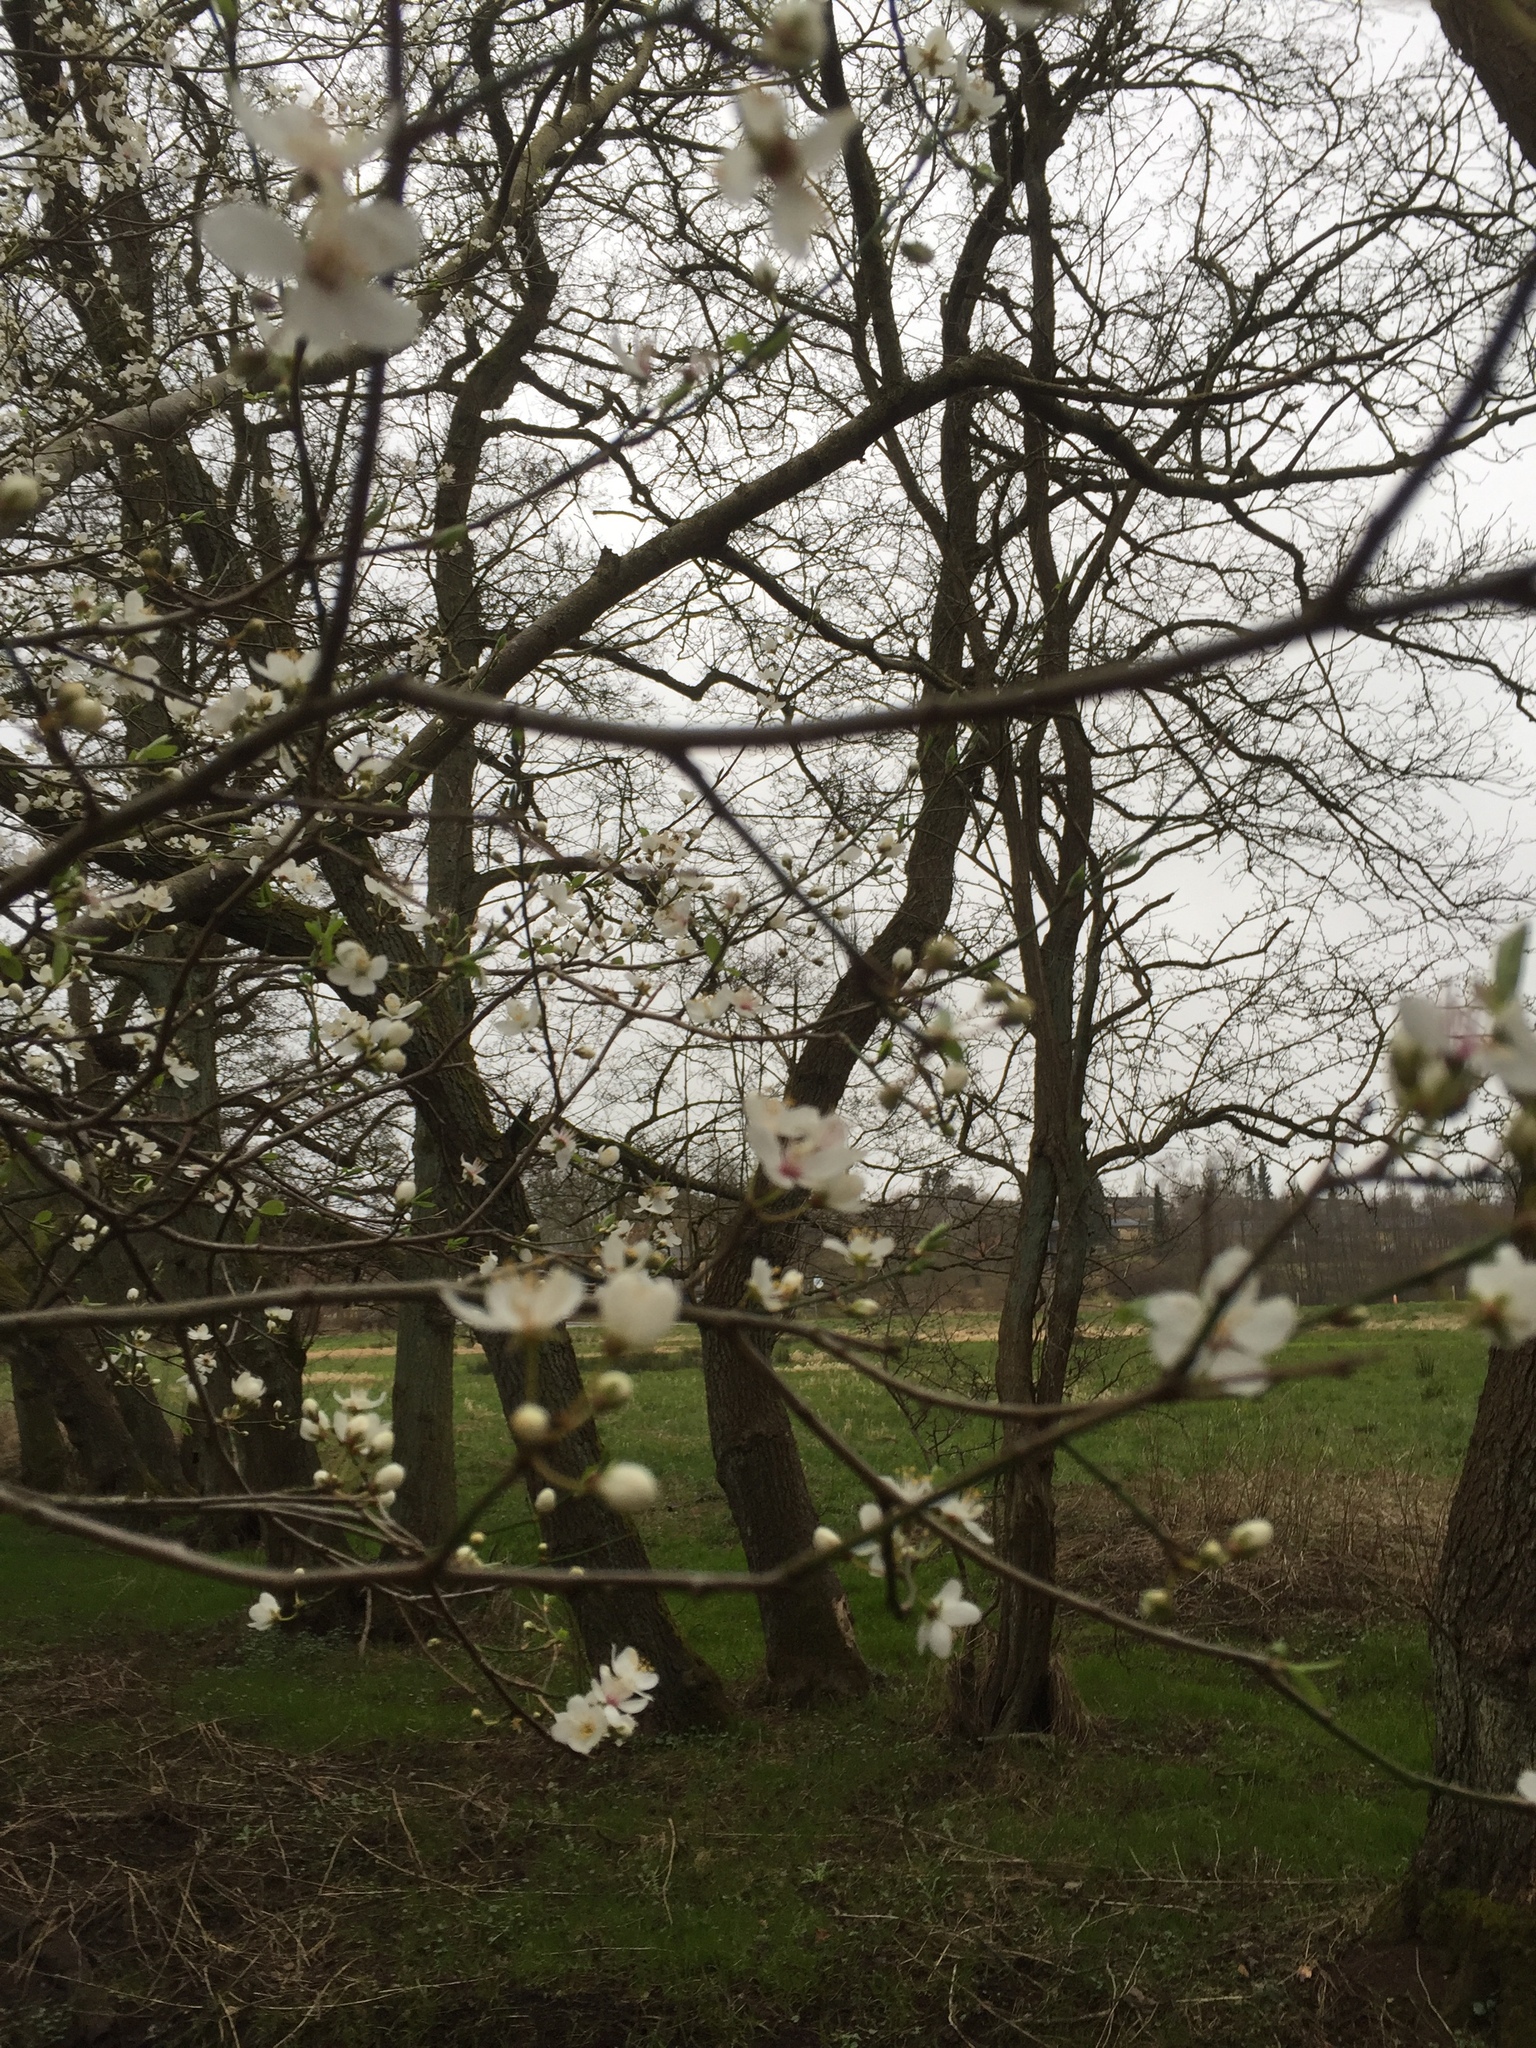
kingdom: Plantae
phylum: Tracheophyta
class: Magnoliopsida
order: Rosales
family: Rosaceae
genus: Prunus
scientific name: Prunus cerasifera
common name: Cherry plum
